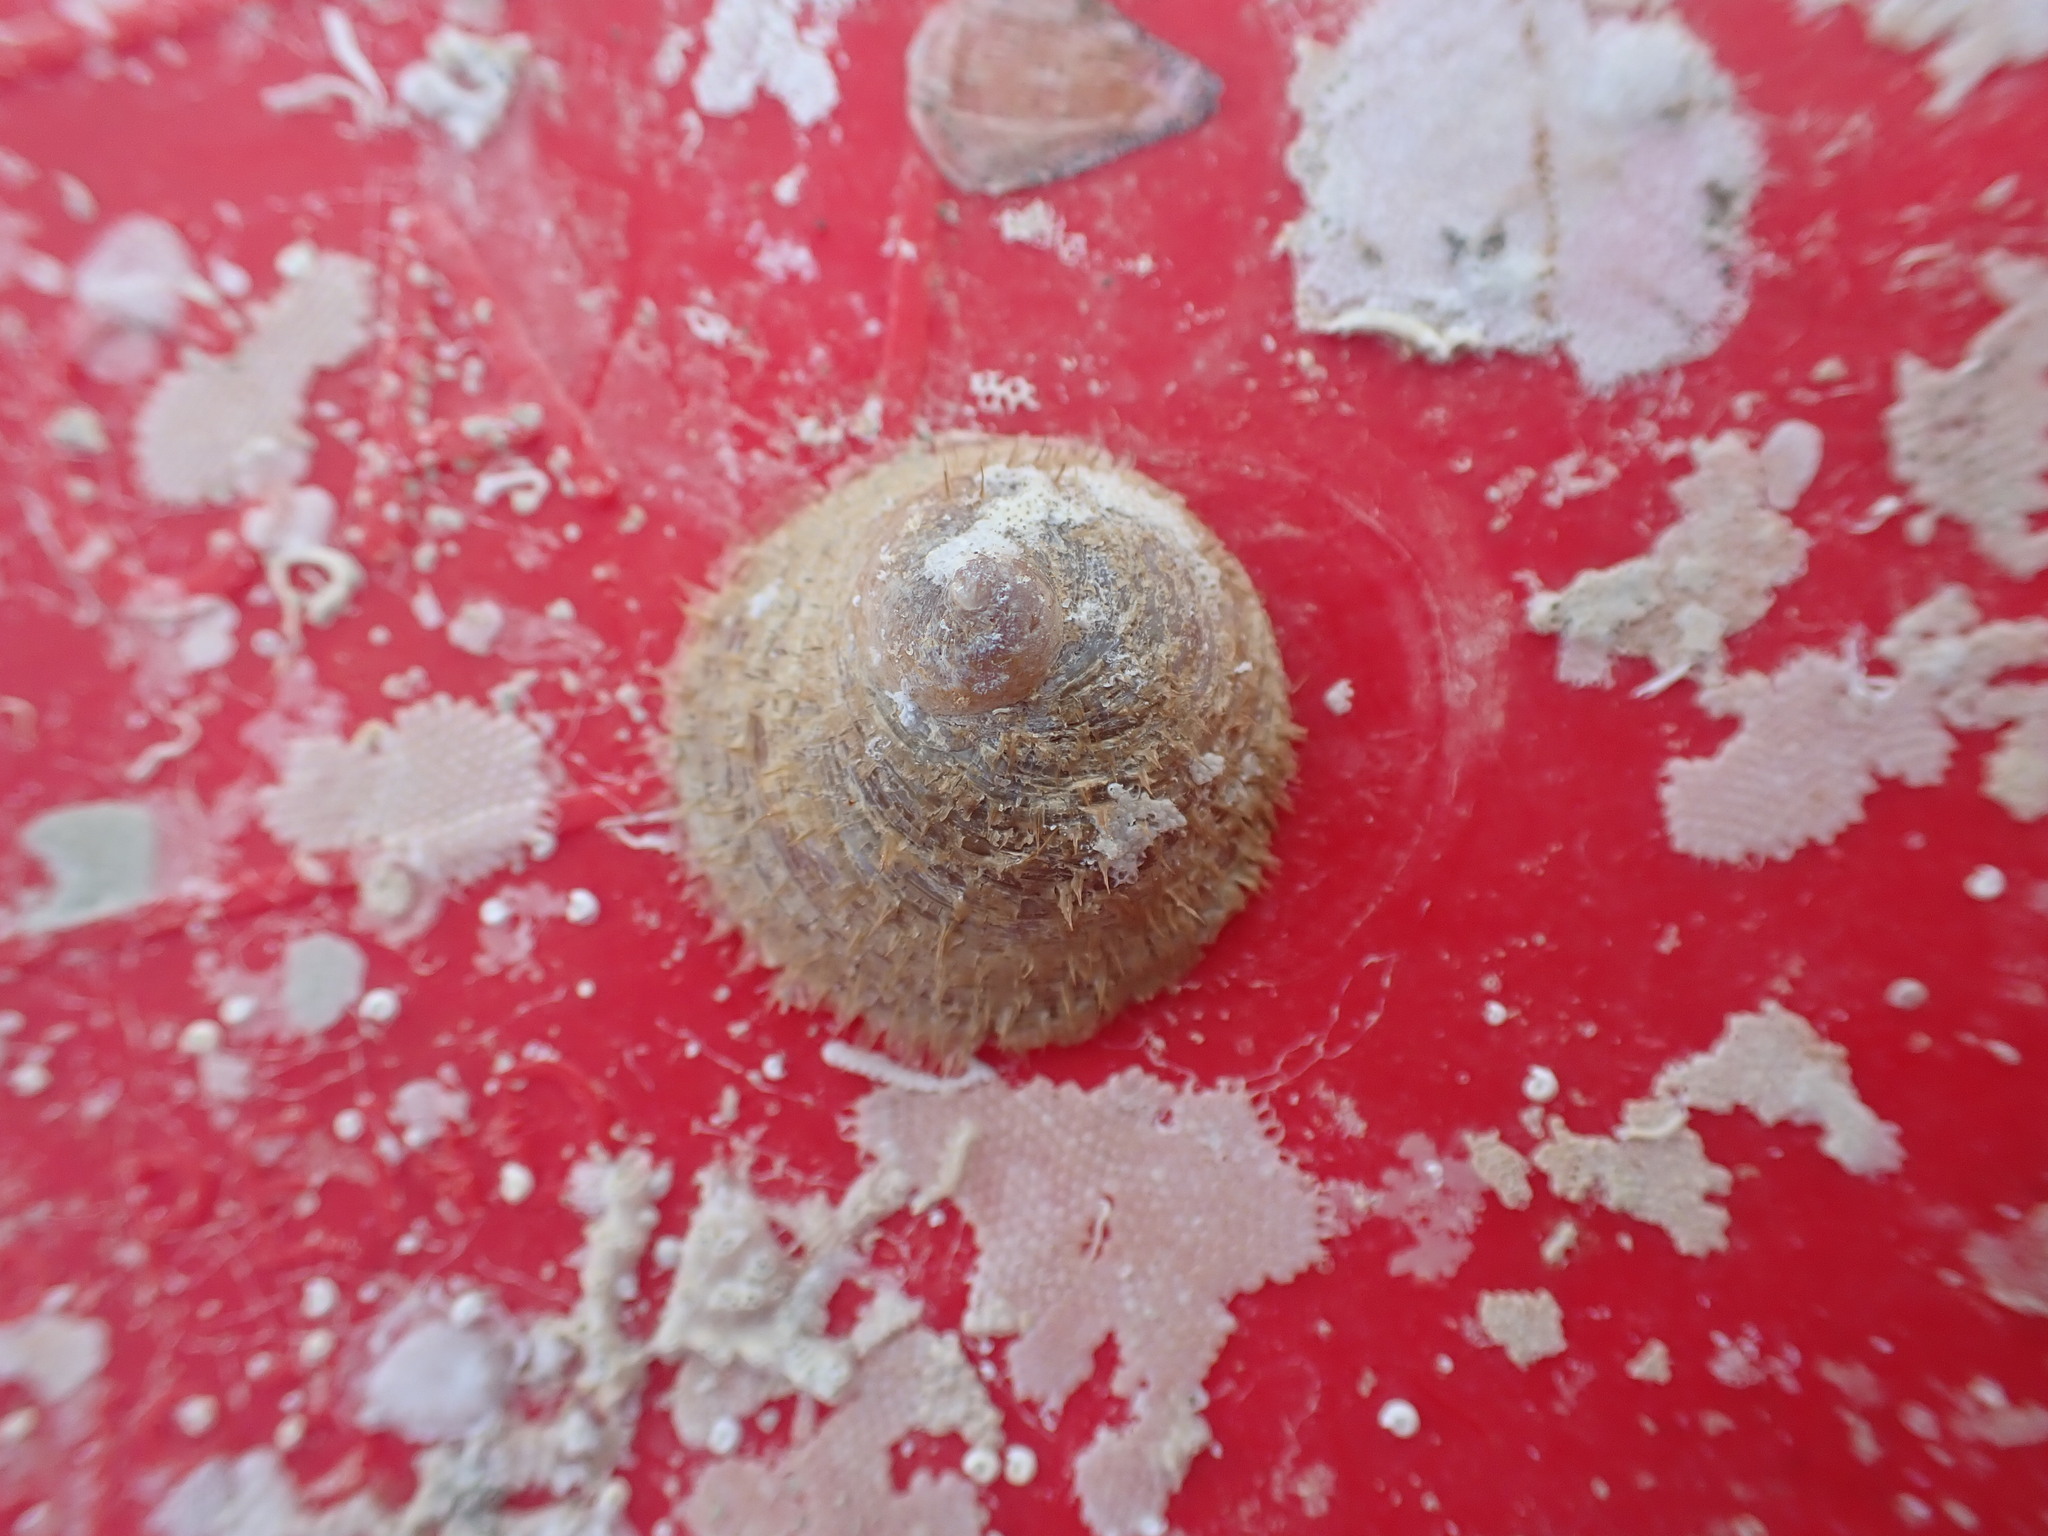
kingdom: Animalia
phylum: Mollusca
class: Gastropoda
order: Littorinimorpha
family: Calyptraeidae
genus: Sigapatella
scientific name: Sigapatella novaezelandiae
